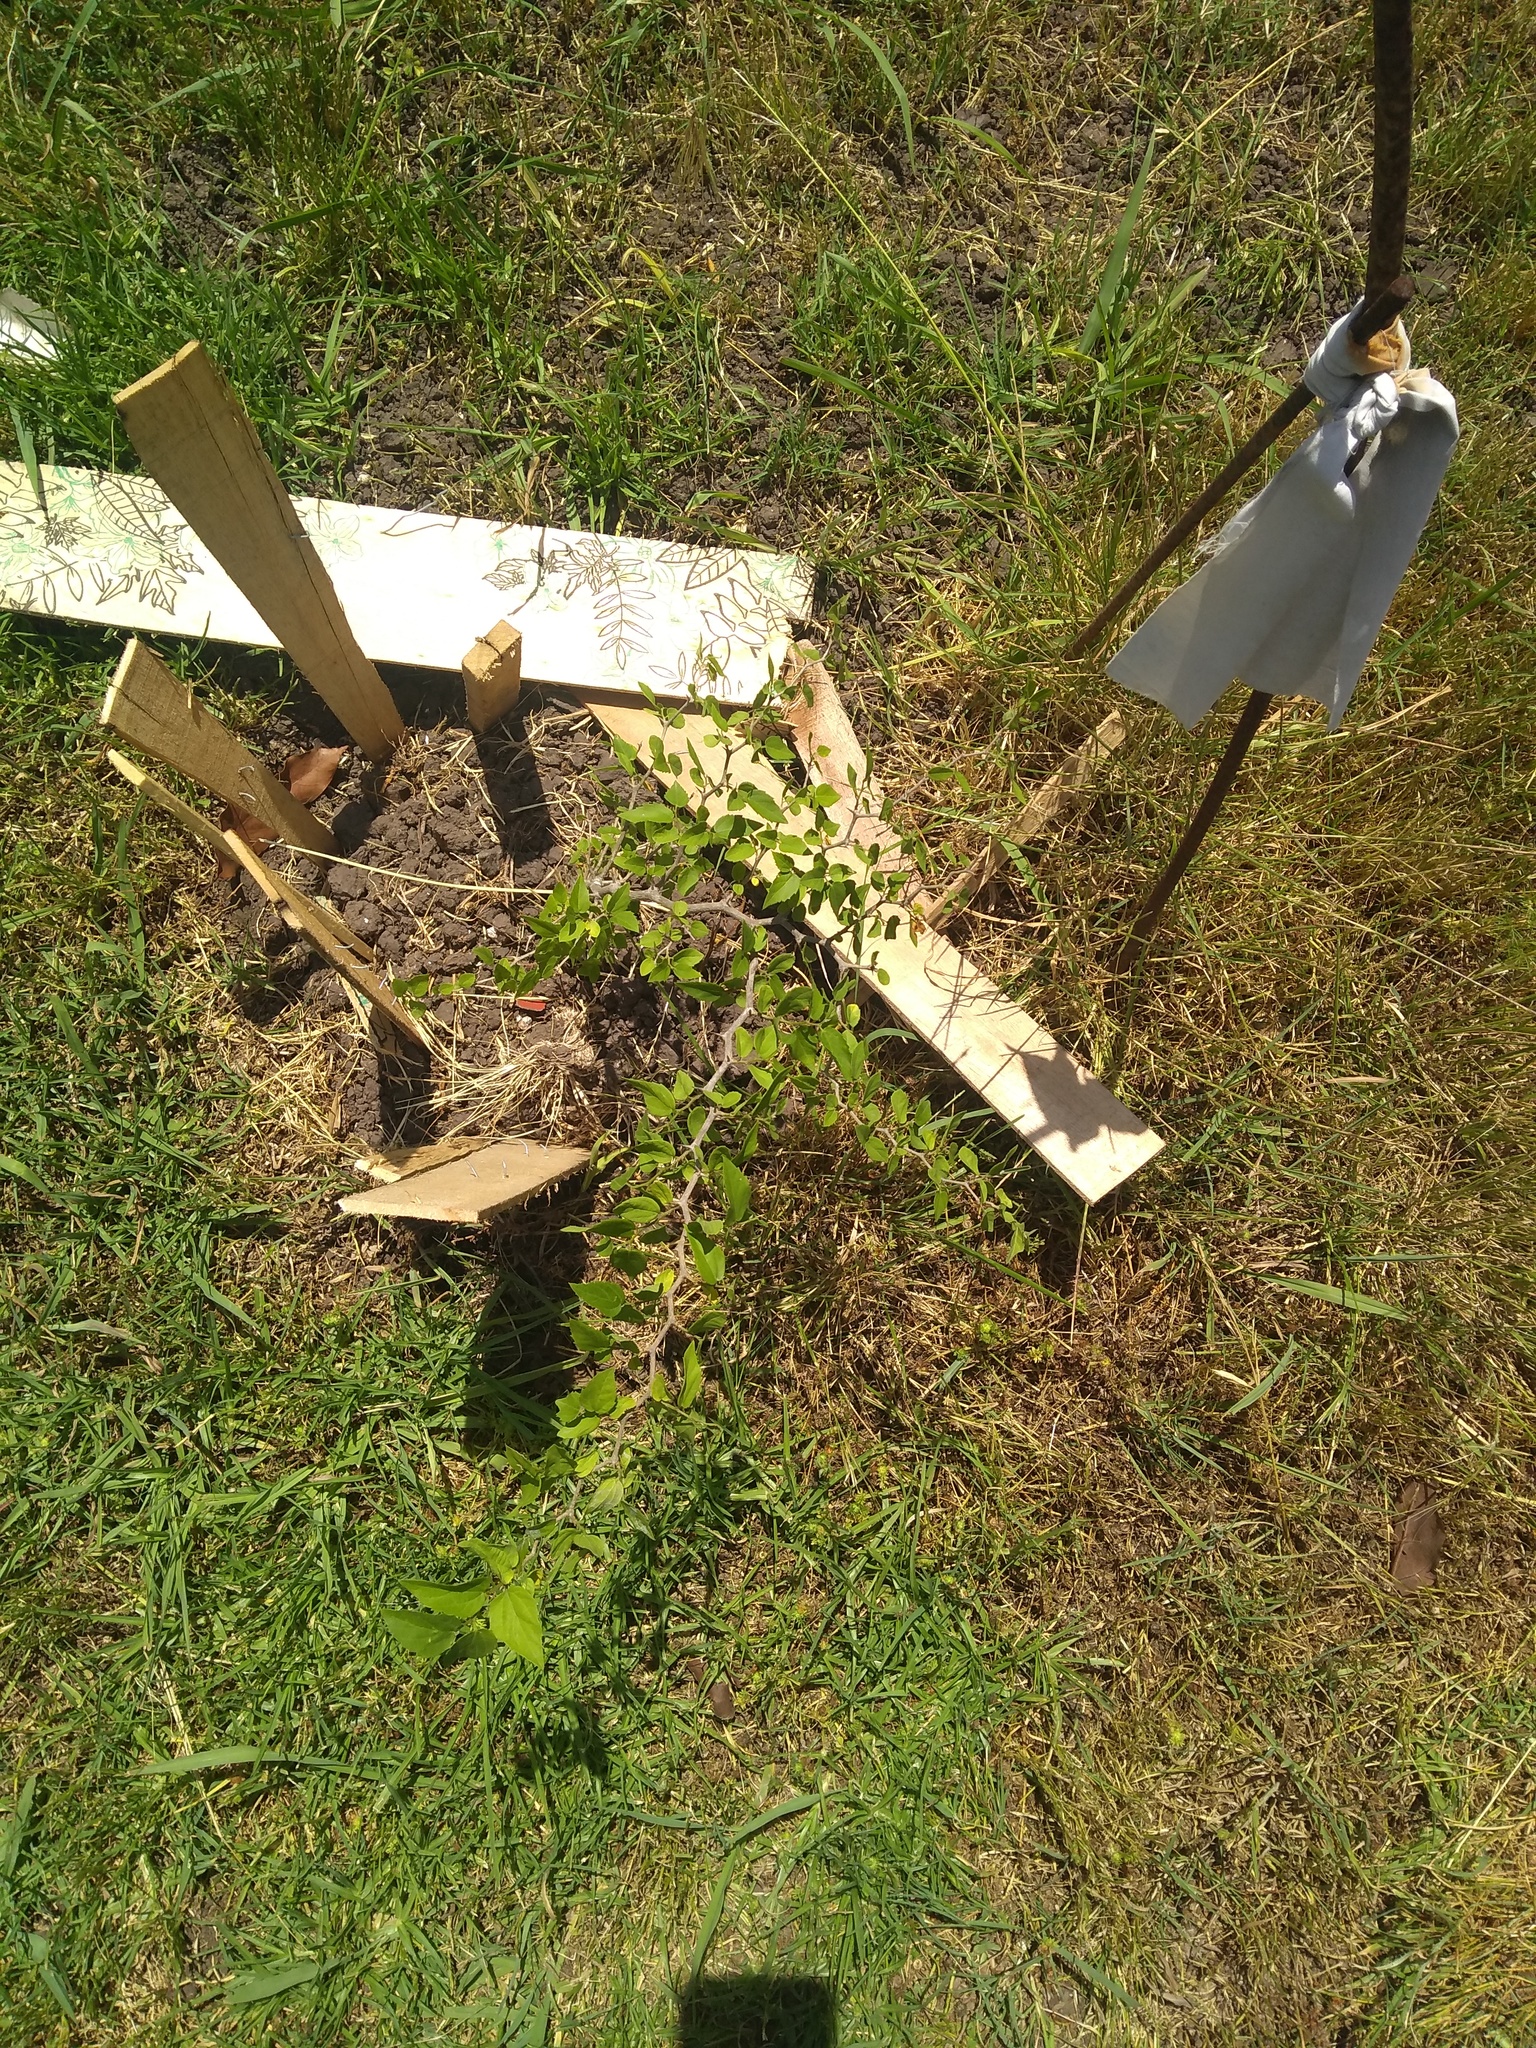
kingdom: Plantae
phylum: Tracheophyta
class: Magnoliopsida
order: Rosales
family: Cannabaceae
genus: Celtis
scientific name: Celtis tala
